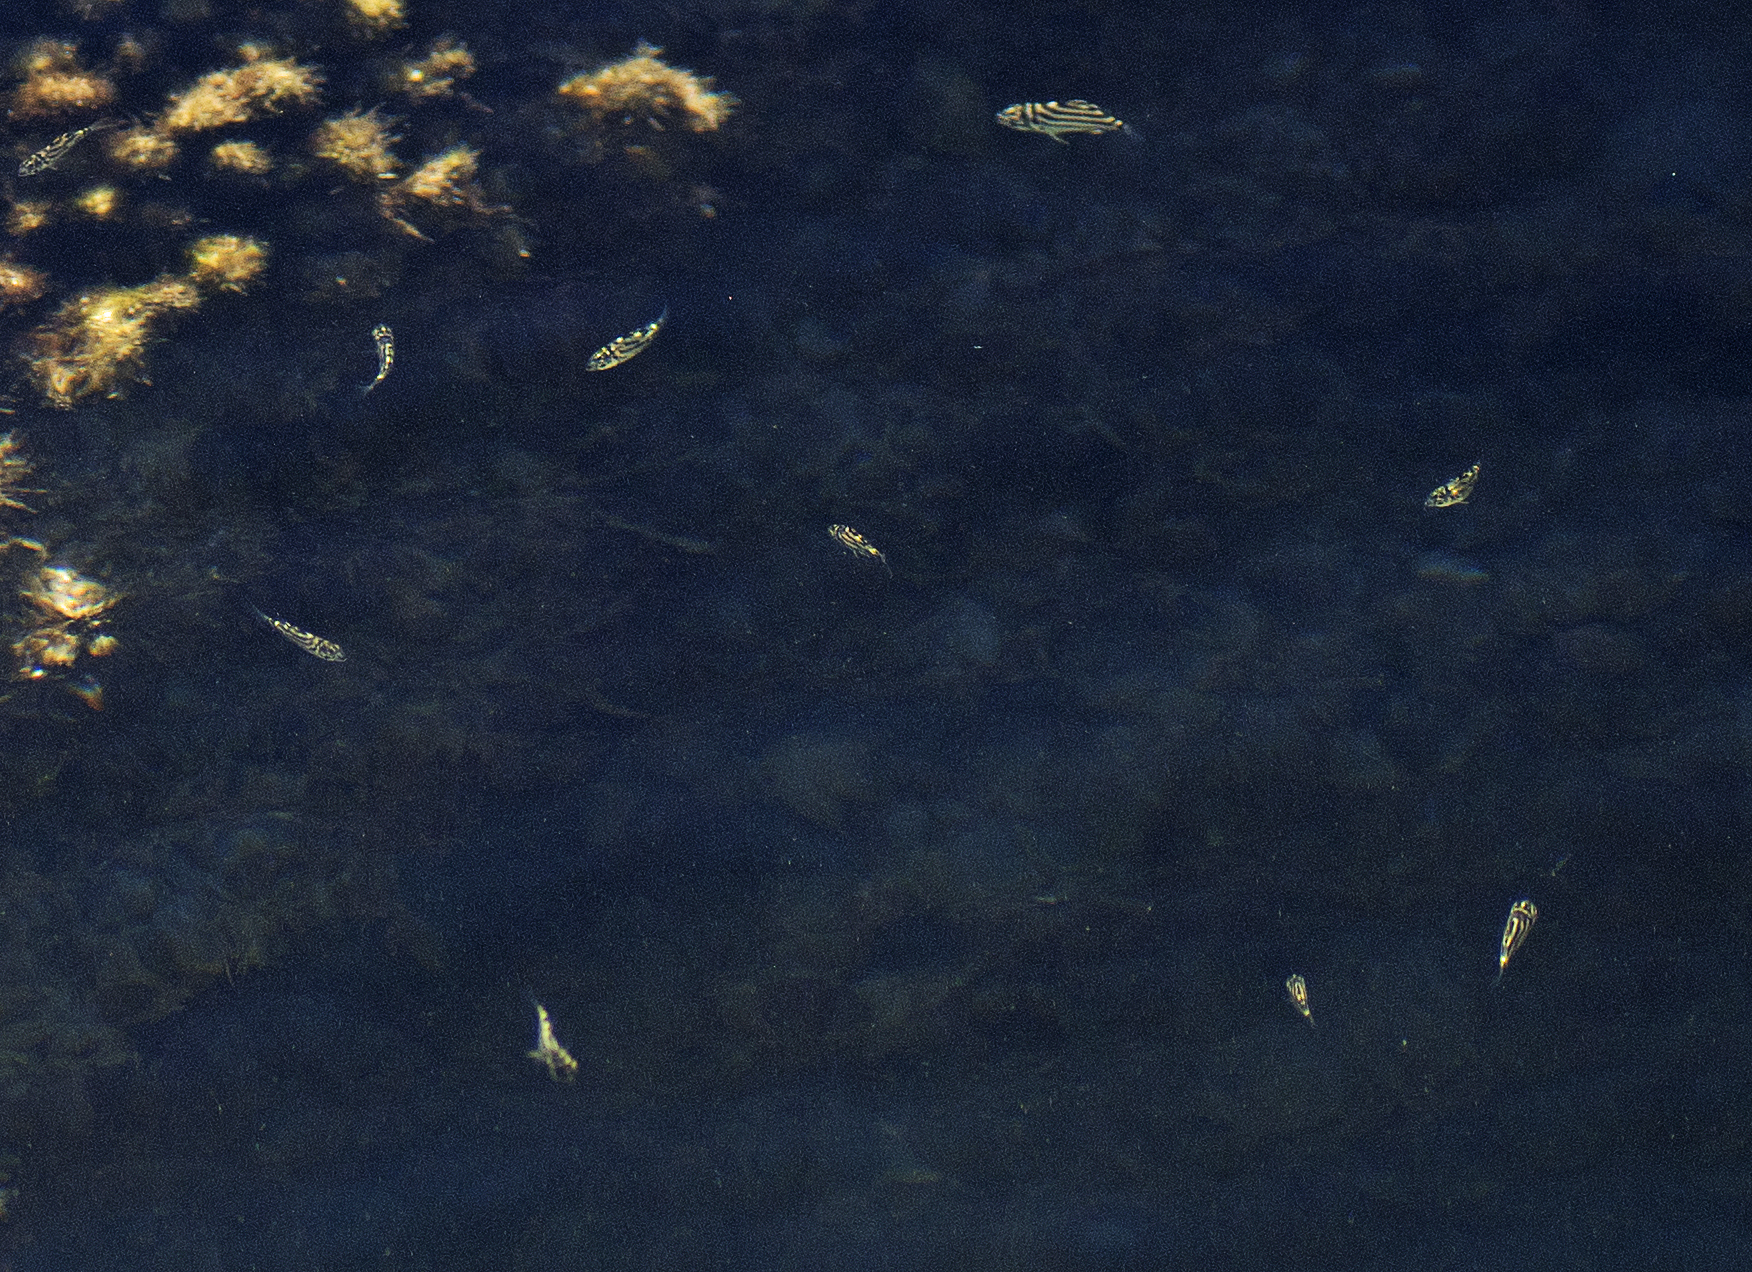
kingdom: Animalia
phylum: Chordata
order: Perciformes
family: Kyphosidae
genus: Microcanthus
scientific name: Microcanthus joyceae
